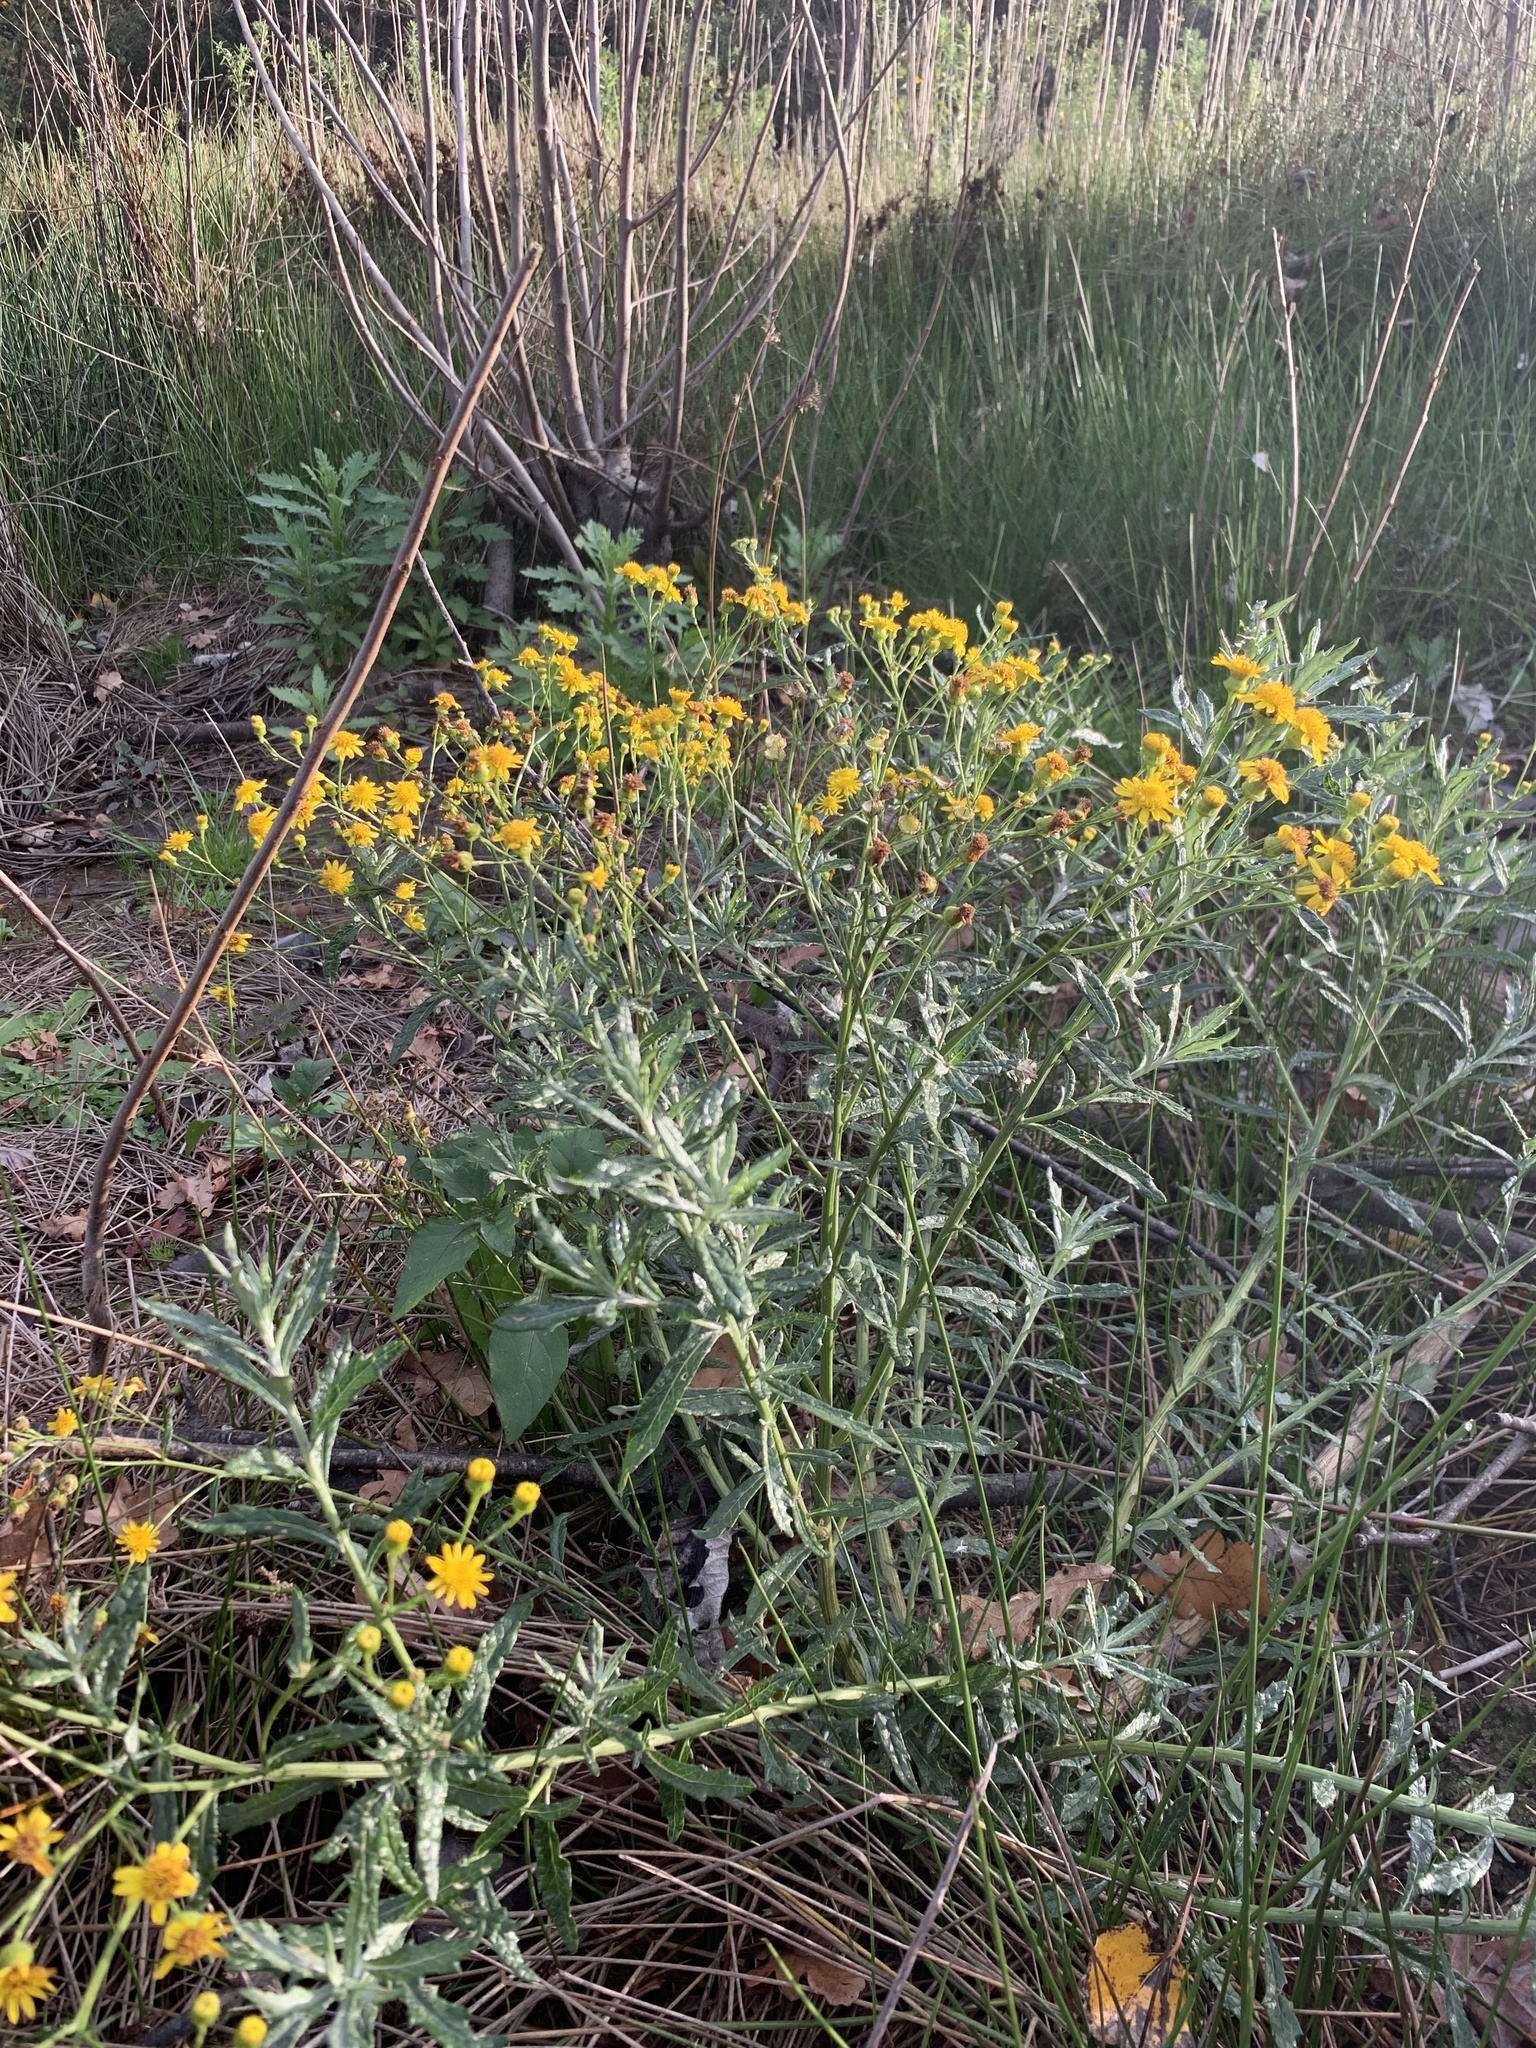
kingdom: Plantae
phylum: Tracheophyta
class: Magnoliopsida
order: Asterales
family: Asteraceae
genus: Senecio
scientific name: Senecio pterophorus
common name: Shoddy ragwort
